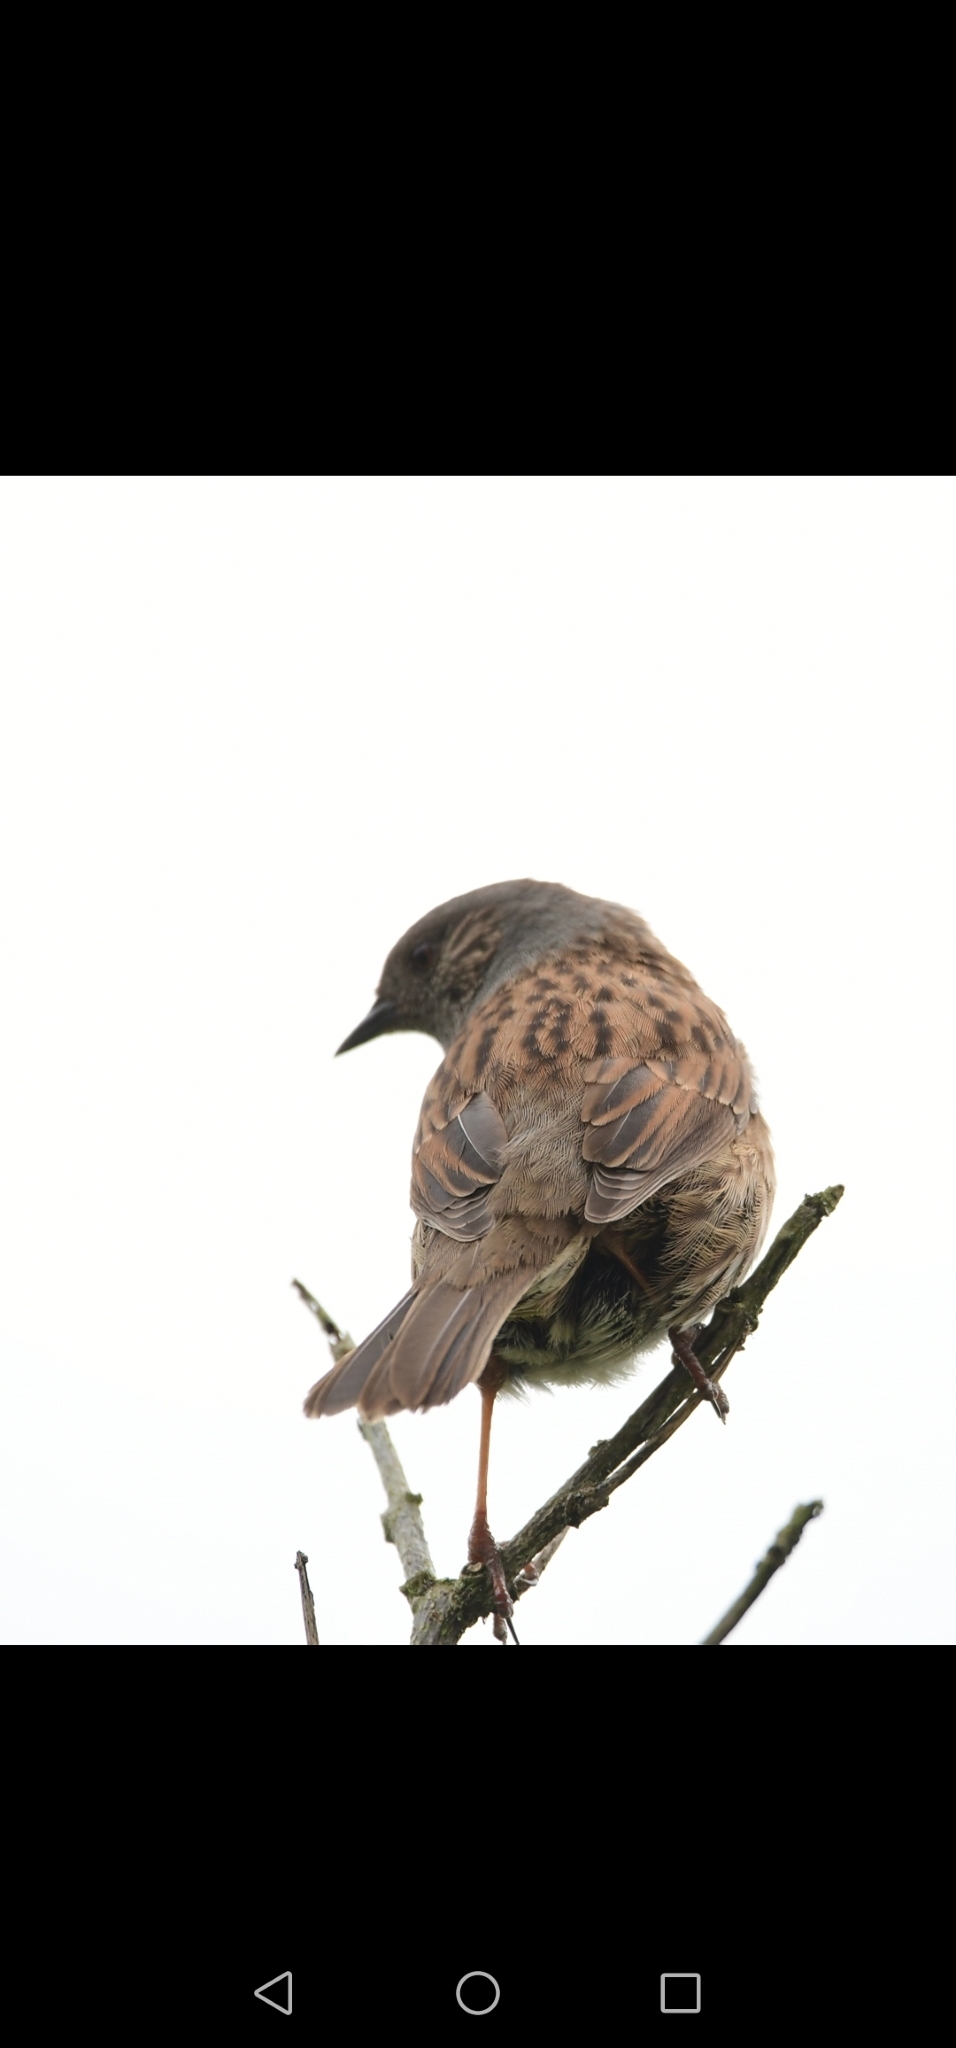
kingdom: Animalia
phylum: Chordata
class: Aves
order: Passeriformes
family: Prunellidae
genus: Prunella
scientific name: Prunella modularis
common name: Dunnock
